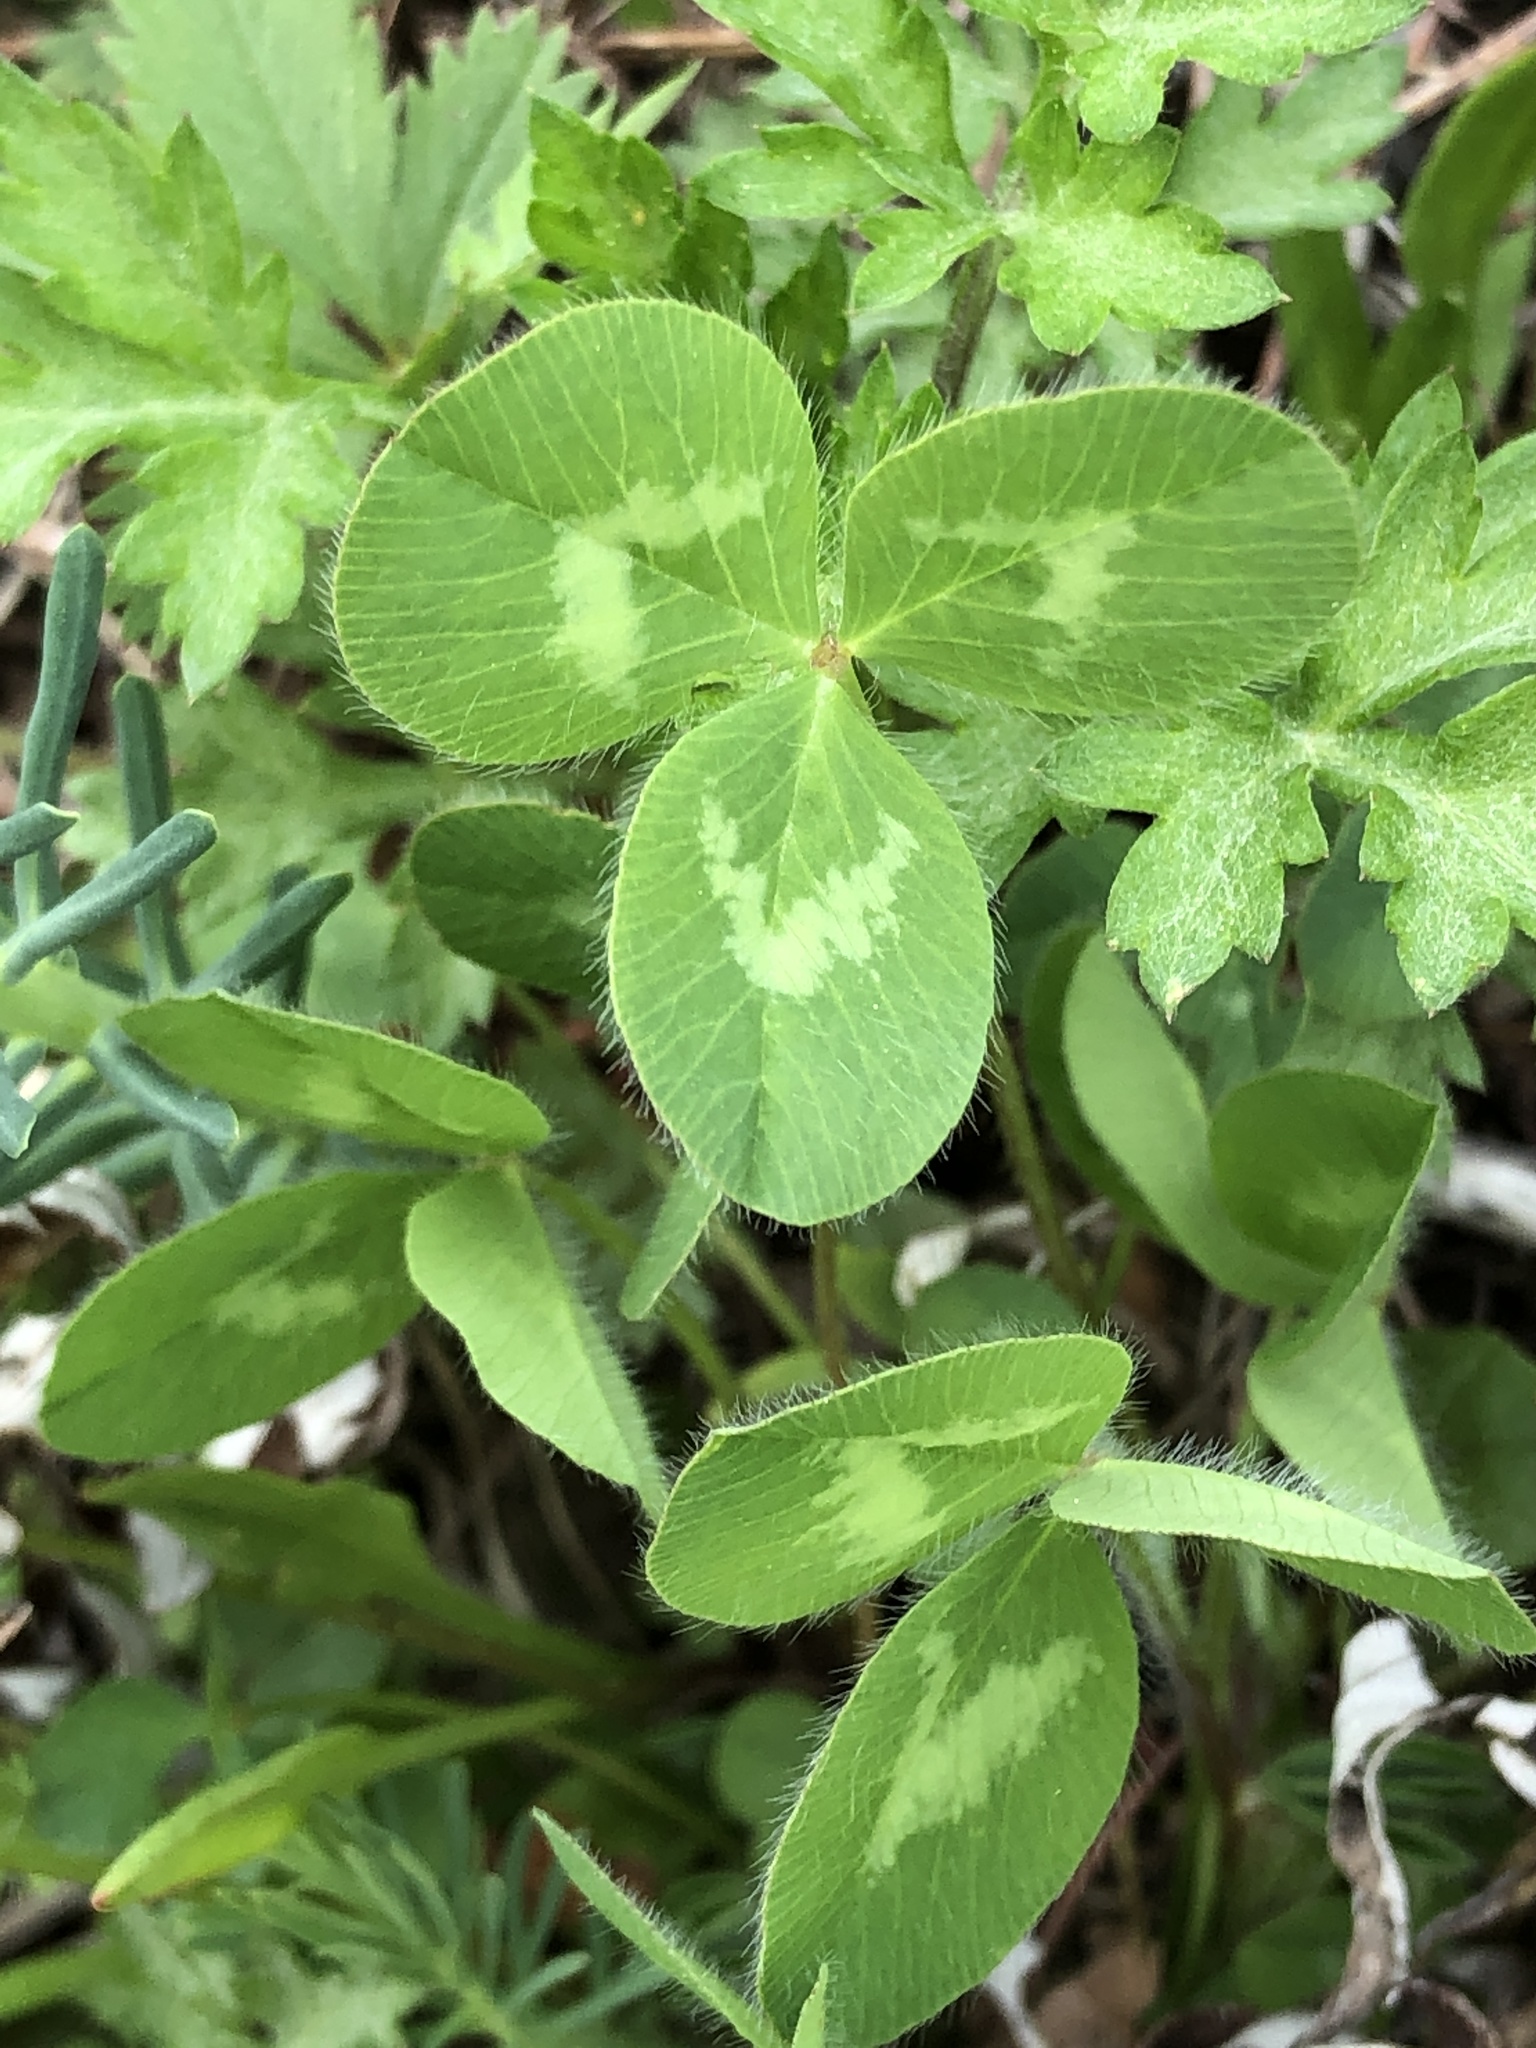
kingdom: Plantae
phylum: Tracheophyta
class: Magnoliopsida
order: Fabales
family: Fabaceae
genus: Trifolium
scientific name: Trifolium pratense
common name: Red clover
